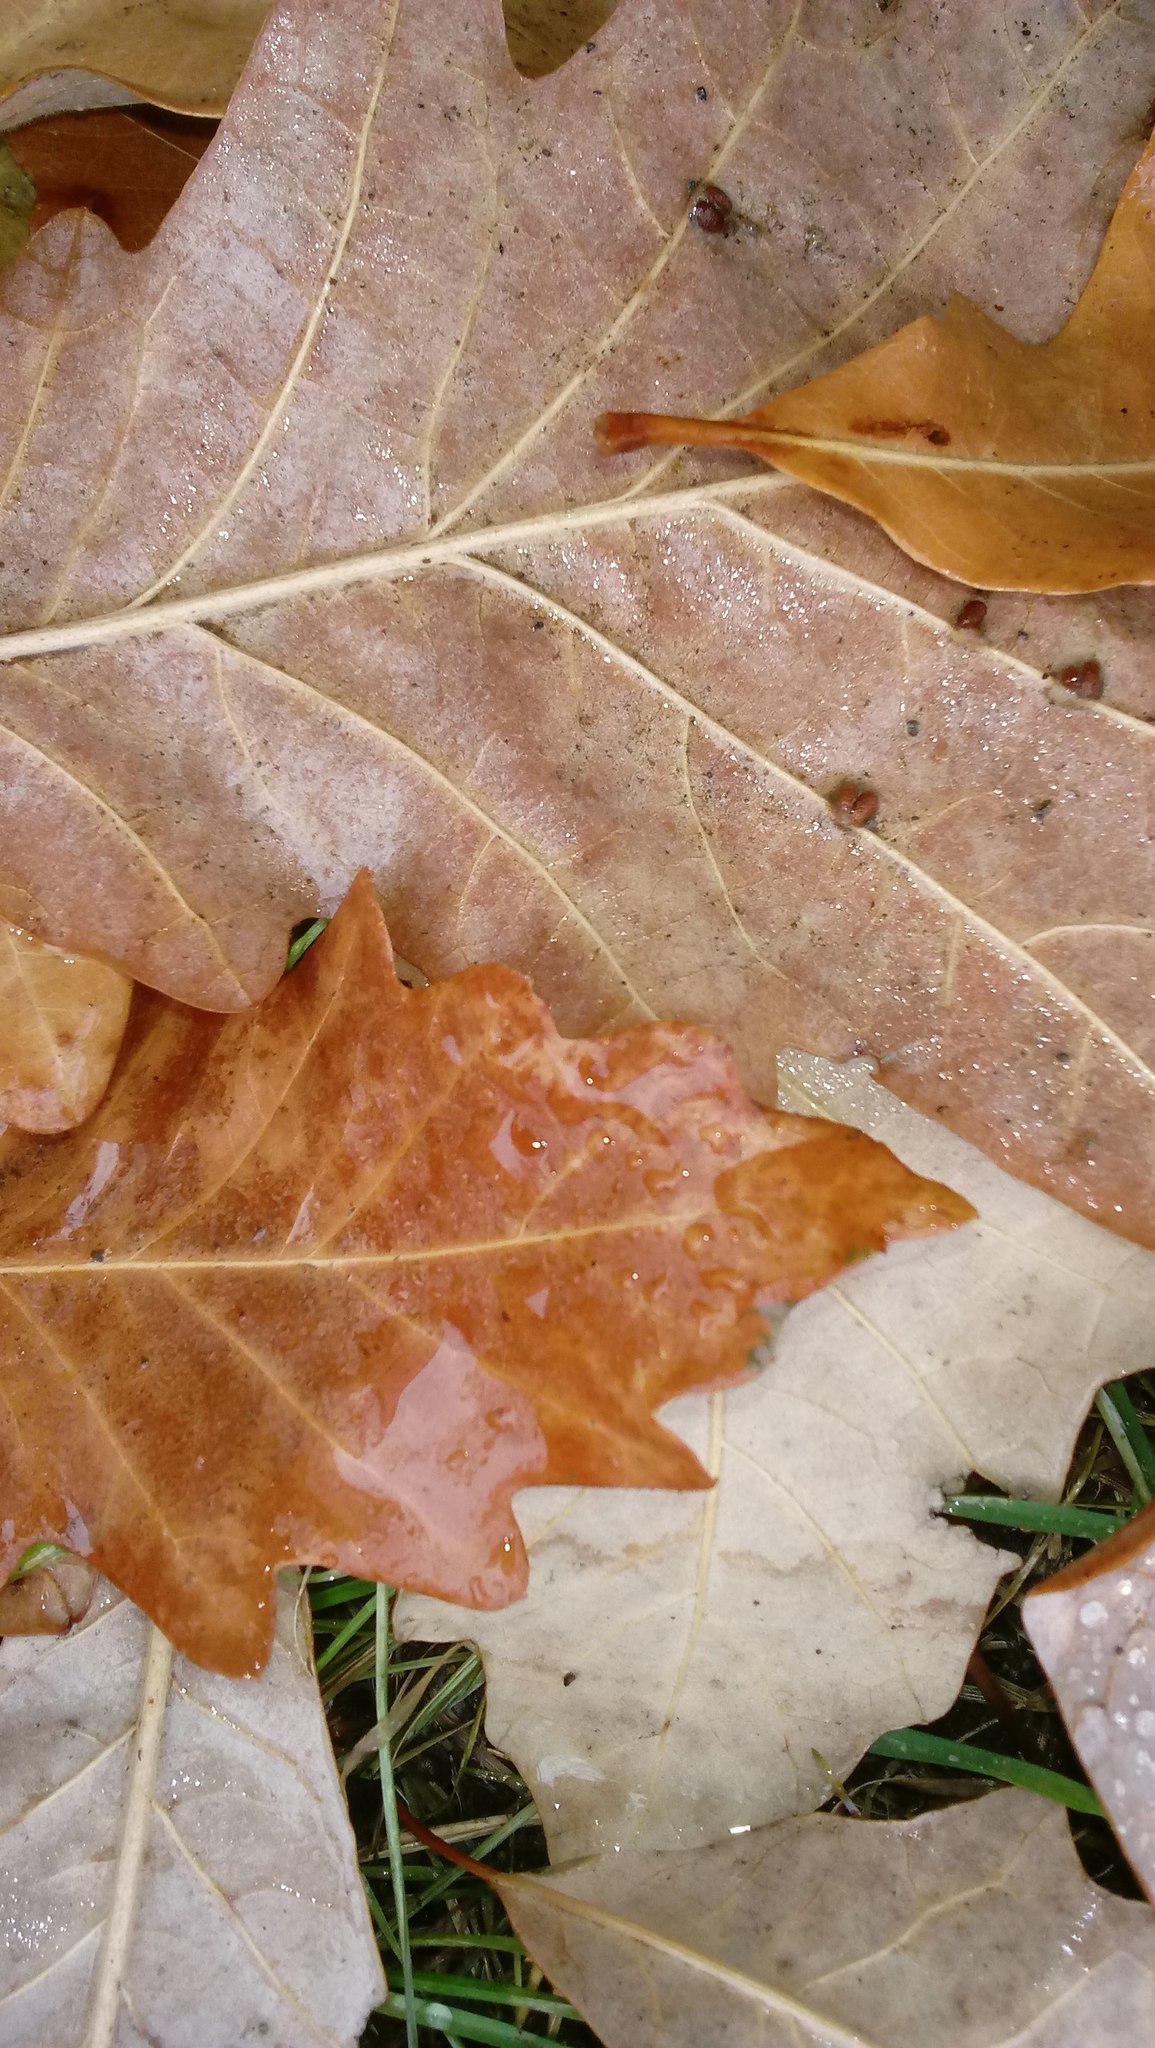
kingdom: Animalia
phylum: Arthropoda
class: Insecta
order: Hymenoptera
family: Cynipidae
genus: Andricus
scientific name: Andricus Druon ignotum
